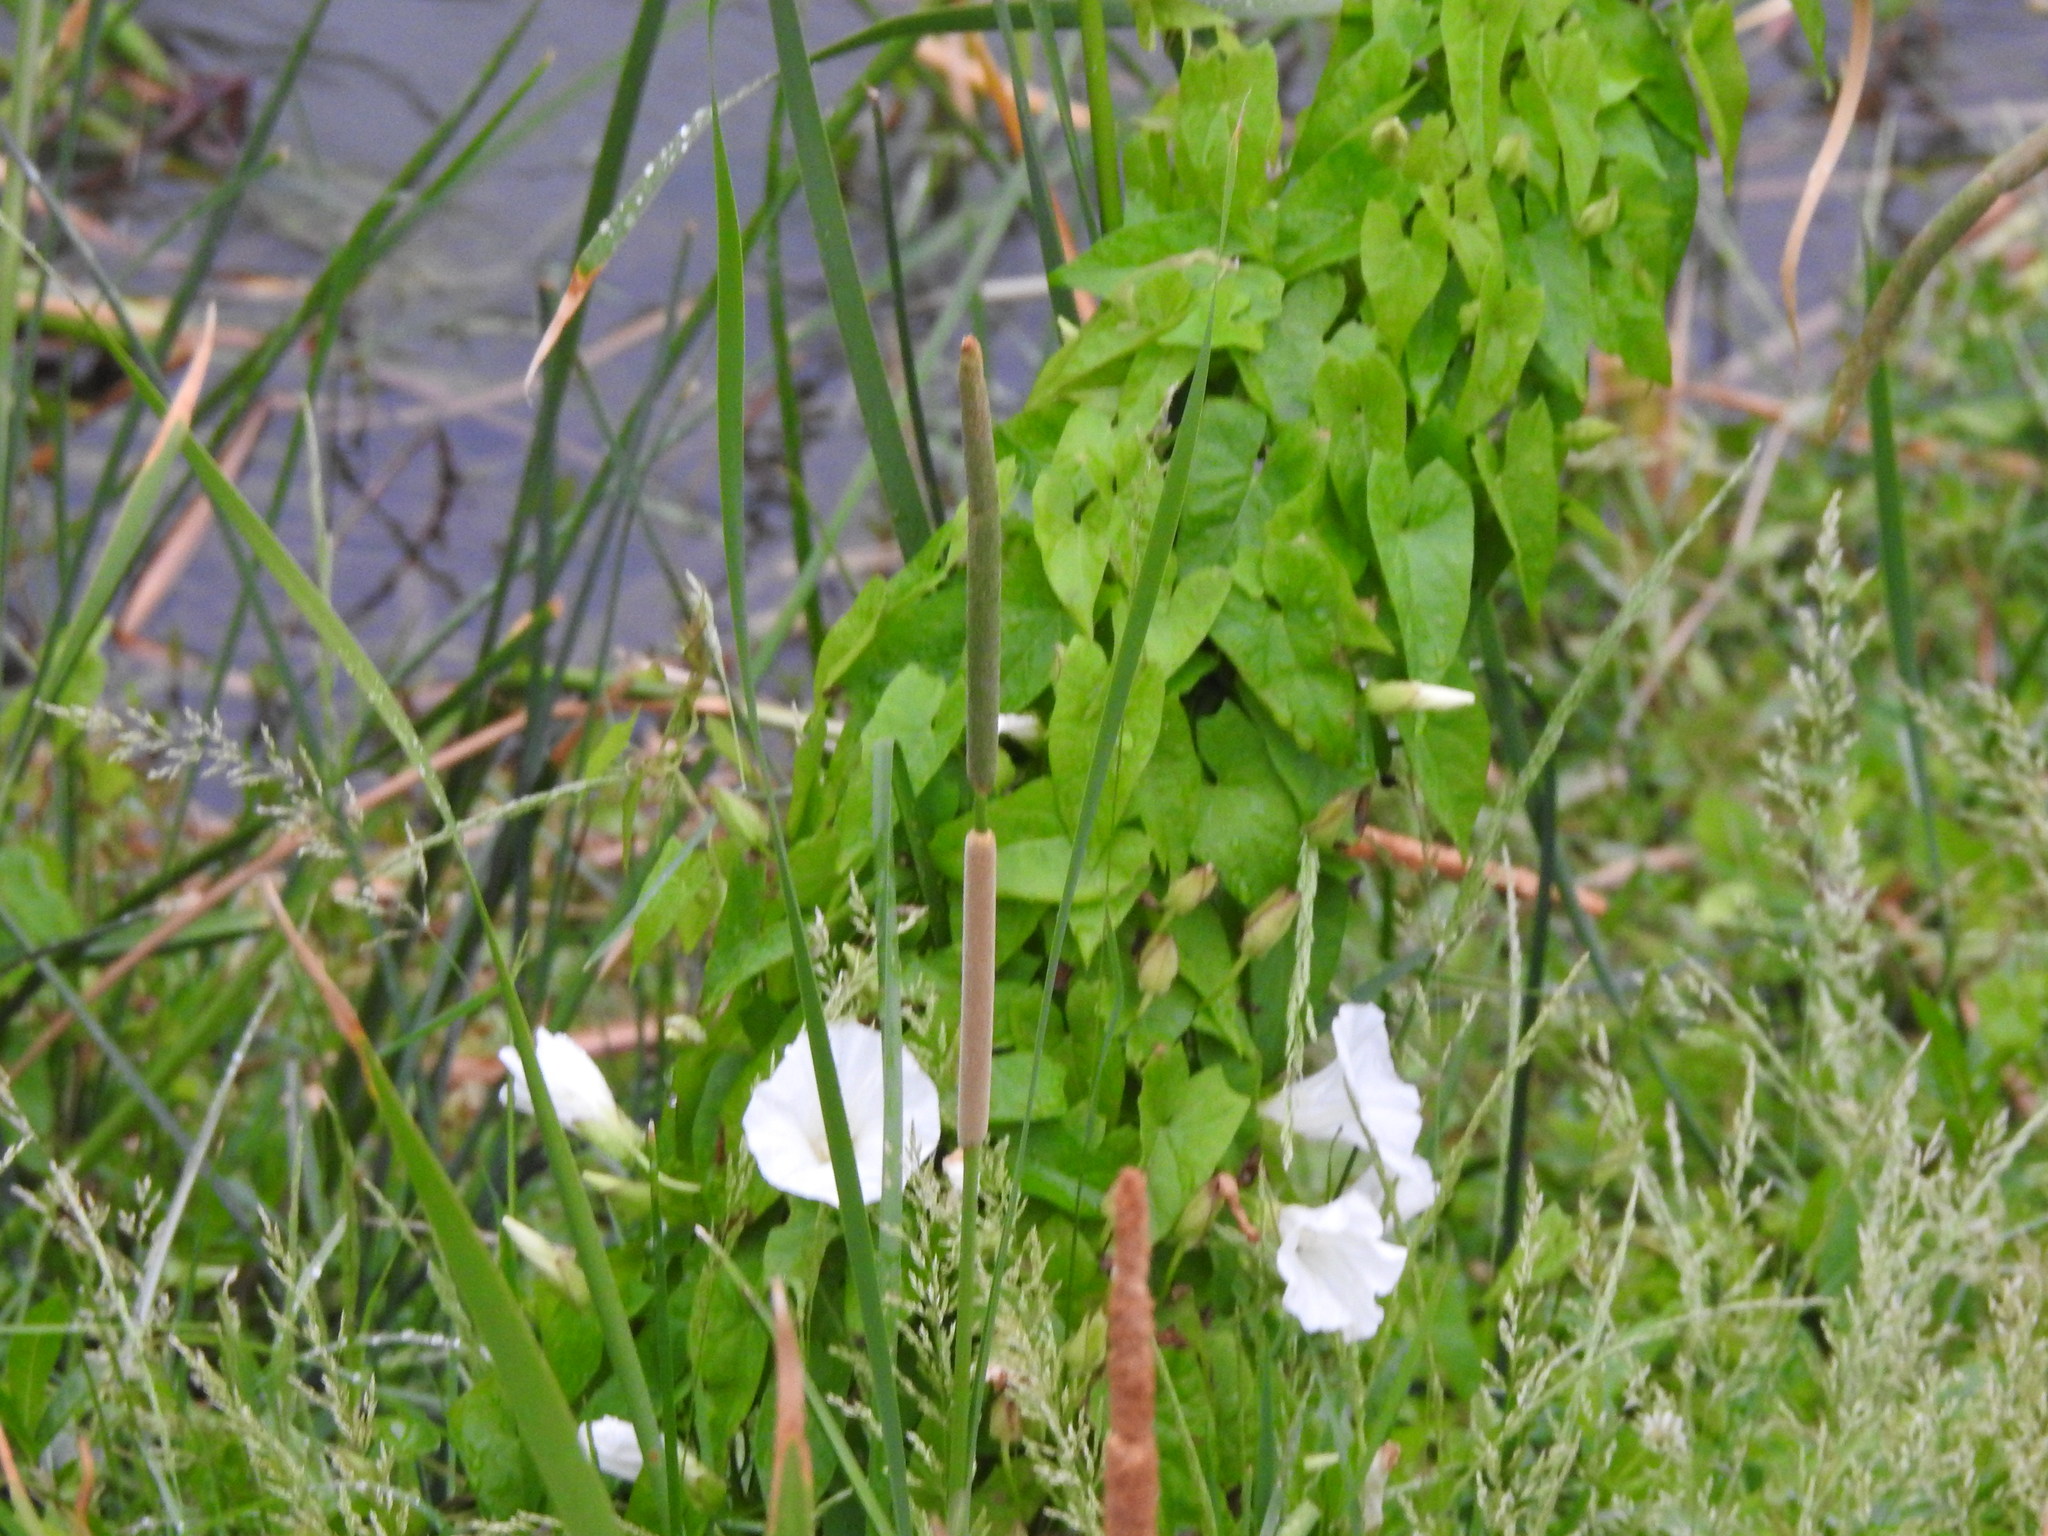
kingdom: Plantae
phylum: Tracheophyta
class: Magnoliopsida
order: Solanales
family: Convolvulaceae
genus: Calystegia
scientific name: Calystegia sepium
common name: Hedge bindweed
